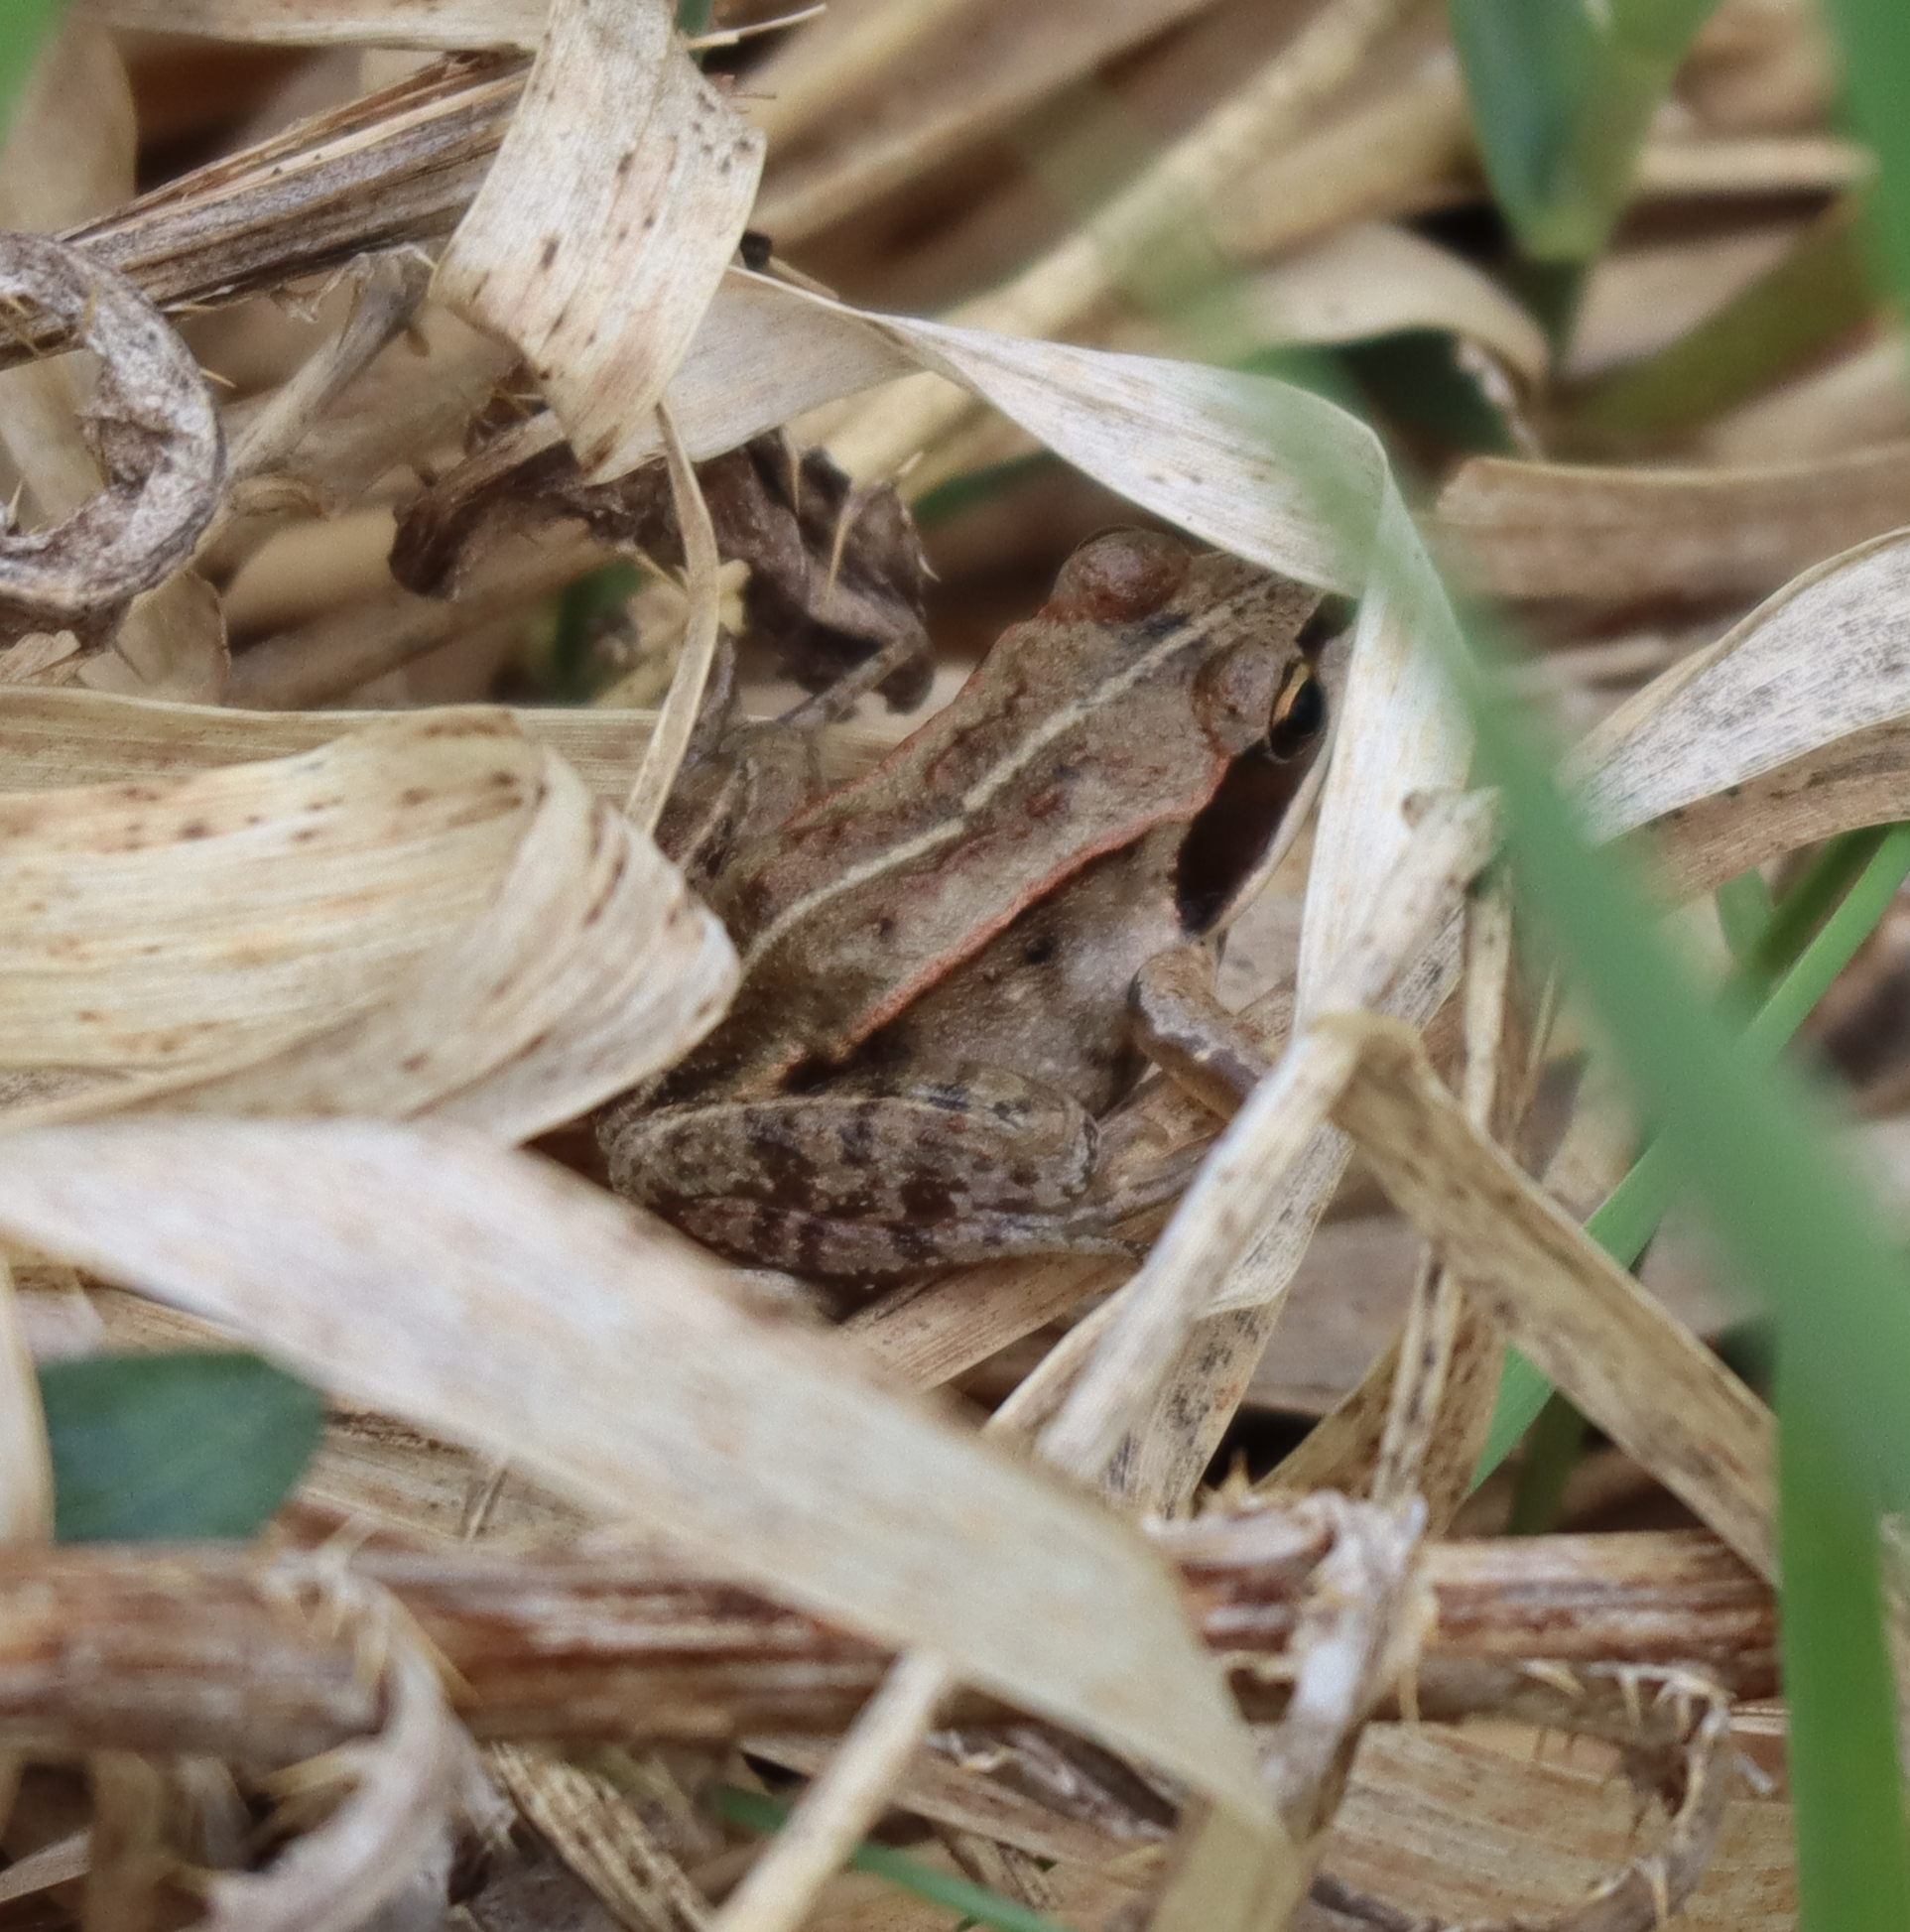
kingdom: Animalia
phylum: Chordata
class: Amphibia
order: Anura
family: Ranidae
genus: Lithobates
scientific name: Lithobates sylvaticus
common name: Wood frog
